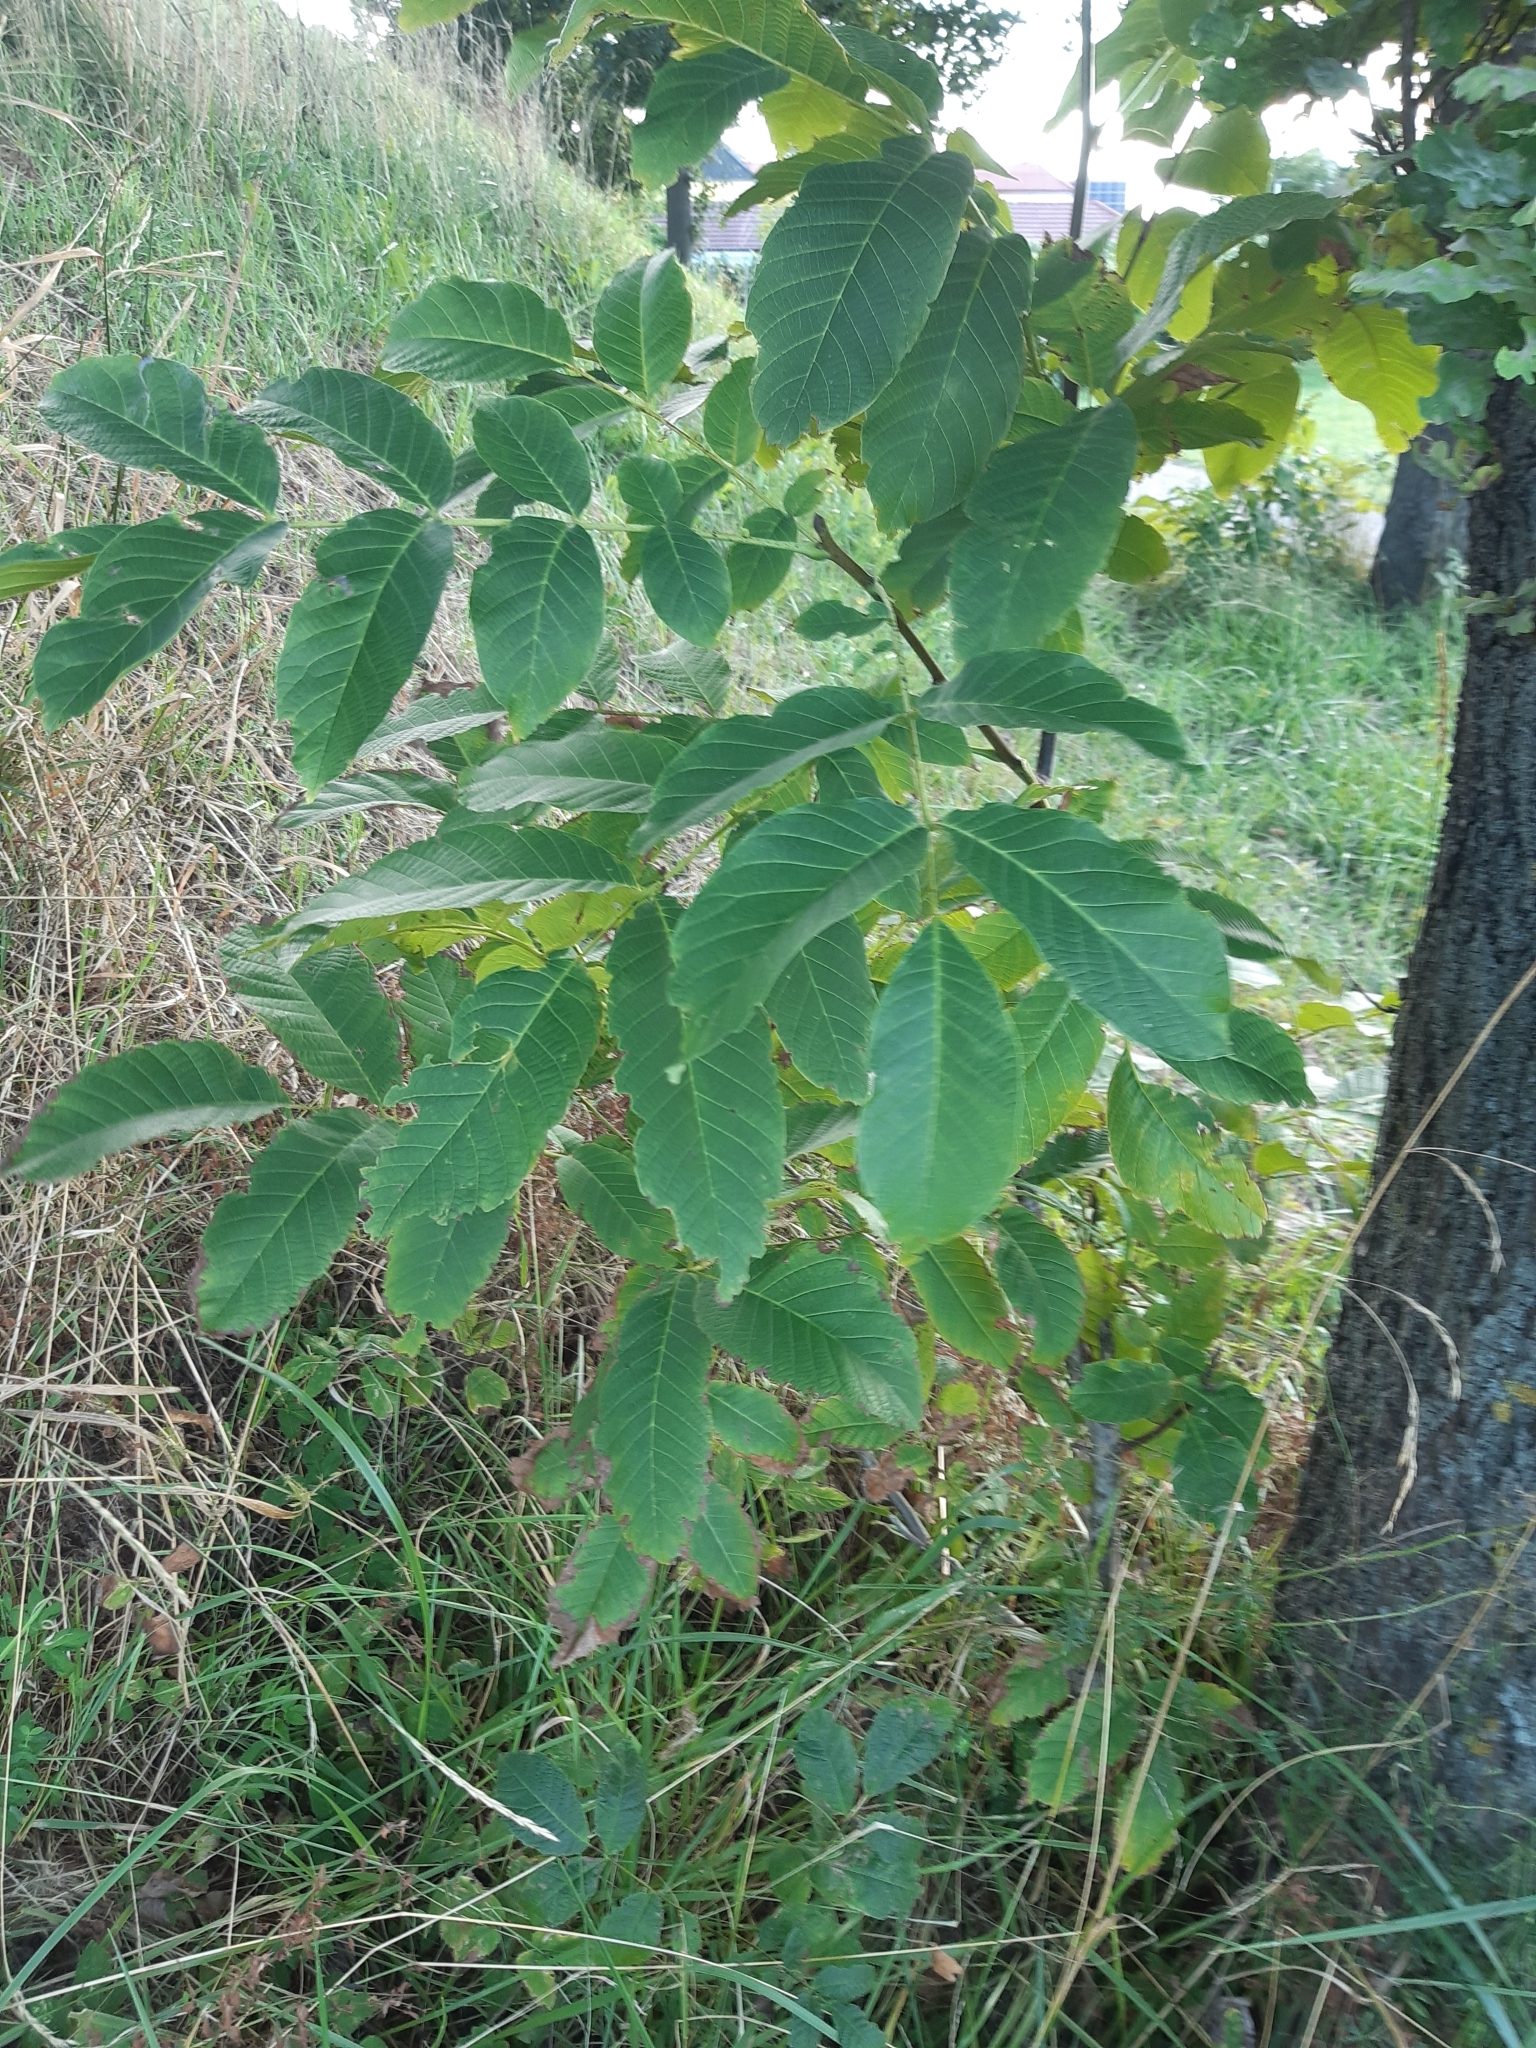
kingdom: Plantae
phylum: Tracheophyta
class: Magnoliopsida
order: Fagales
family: Juglandaceae
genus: Juglans
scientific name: Juglans regia
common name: Walnut
